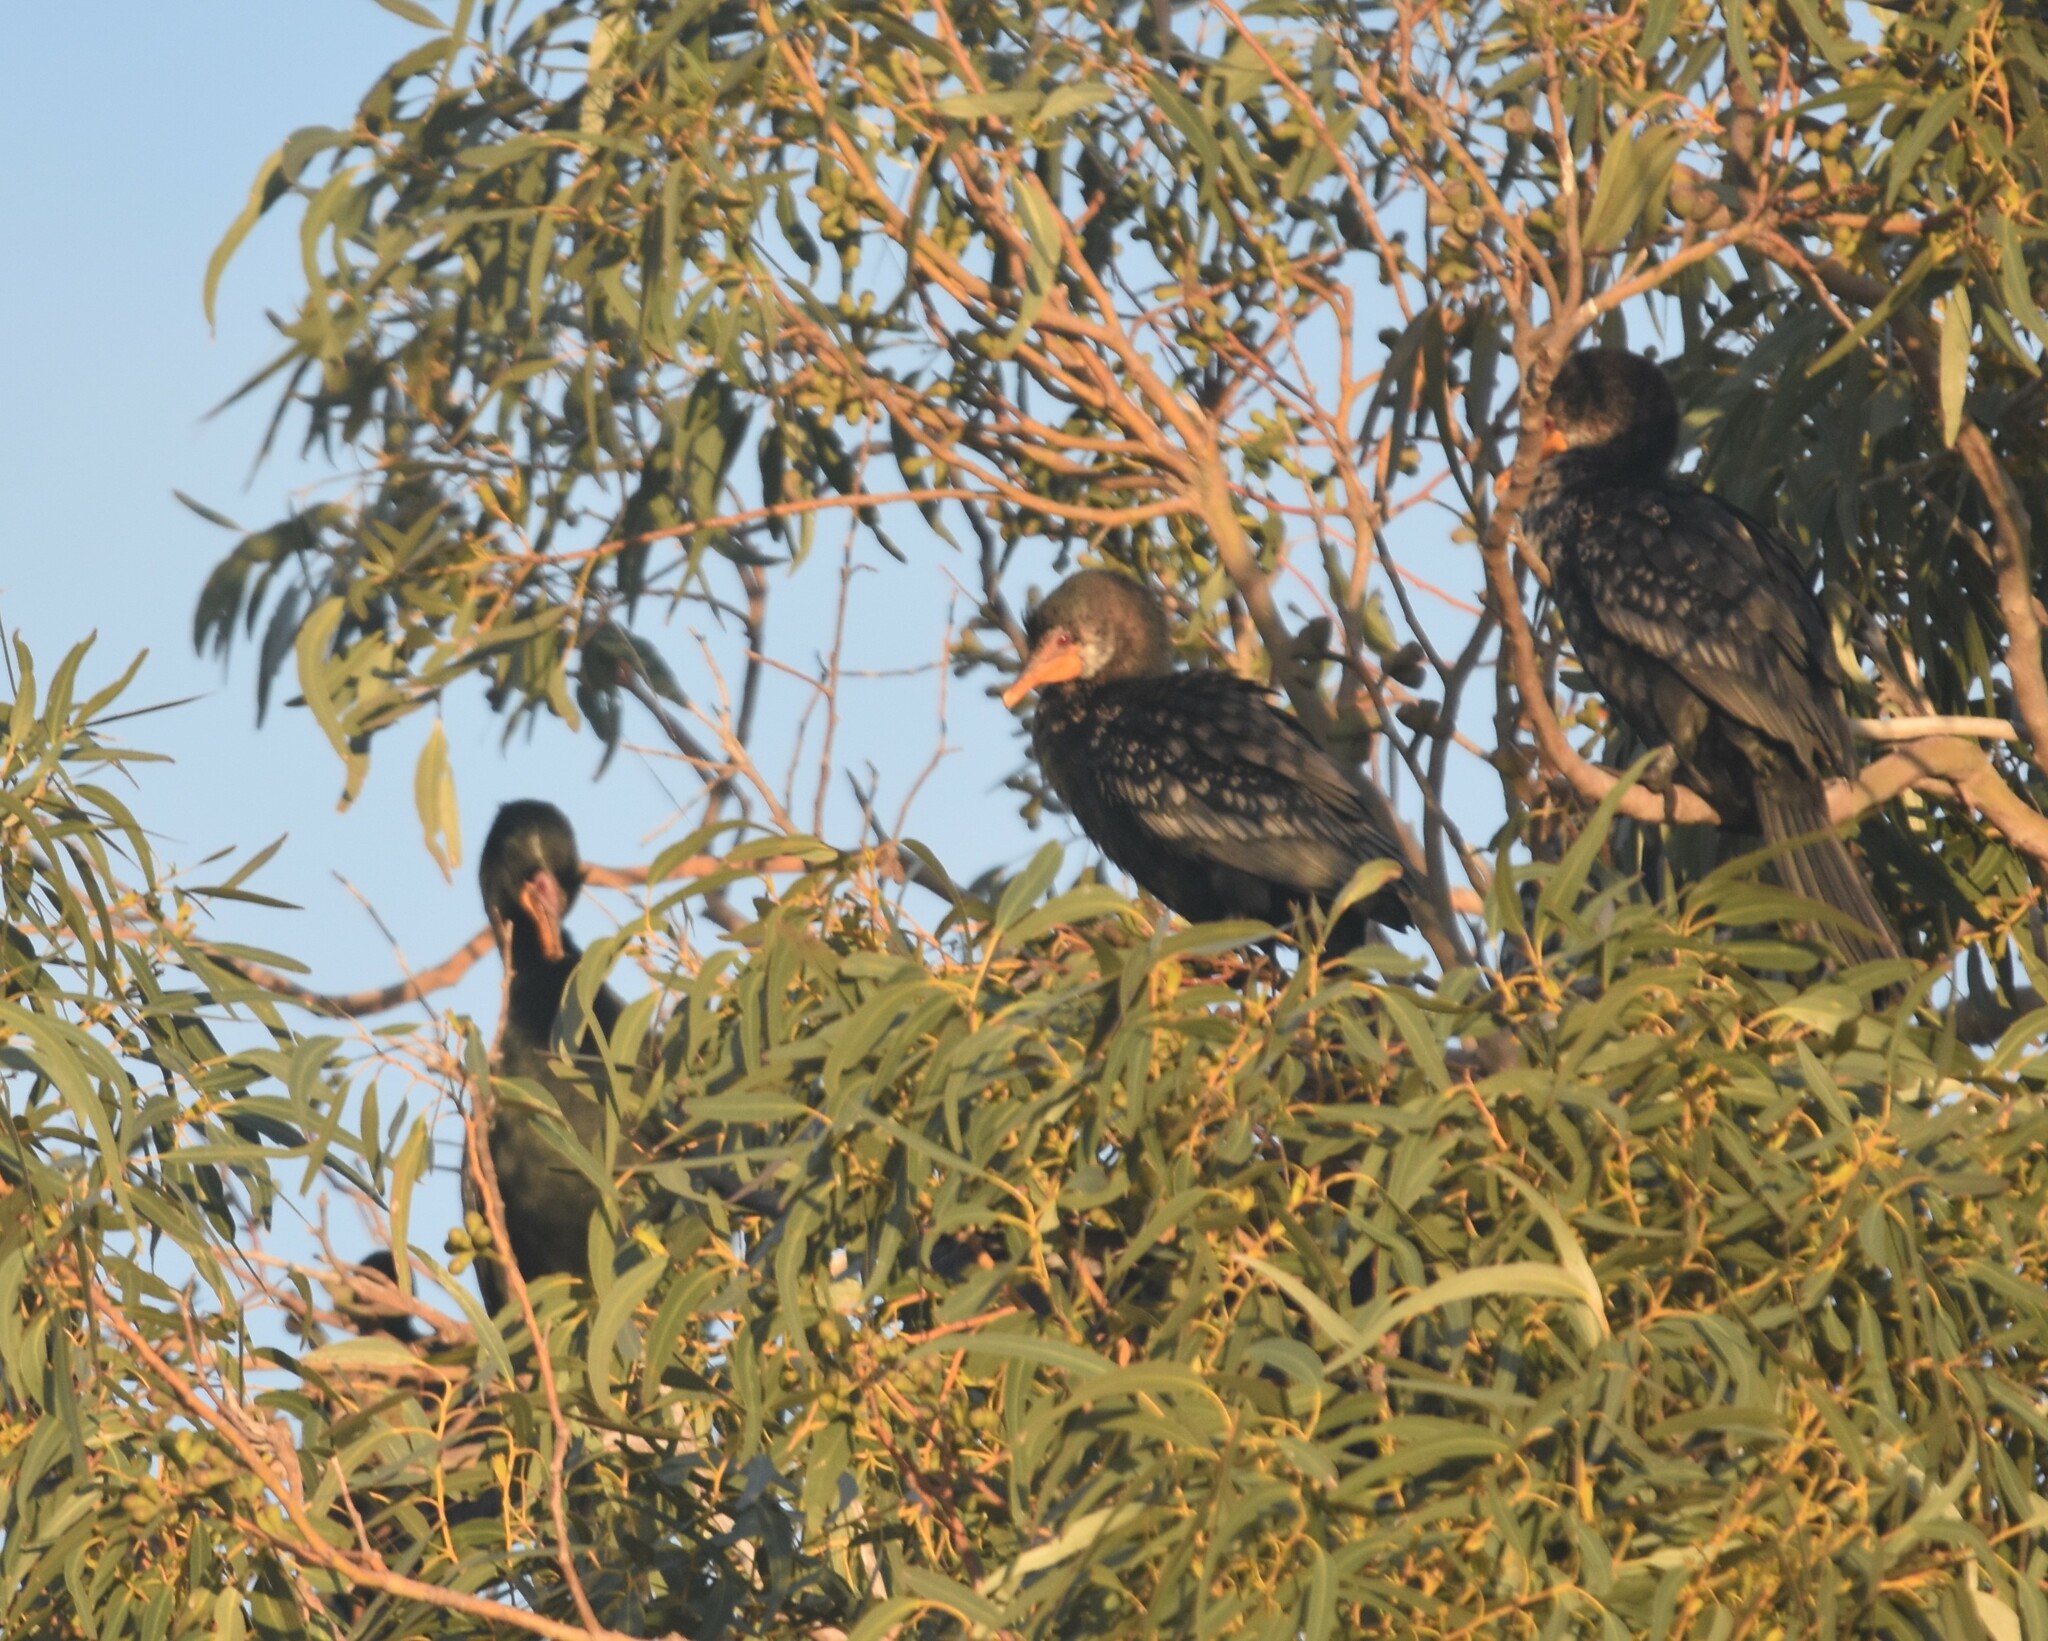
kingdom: Animalia
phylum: Chordata
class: Aves
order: Suliformes
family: Phalacrocoracidae
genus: Microcarbo
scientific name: Microcarbo africanus
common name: Long-tailed cormorant
